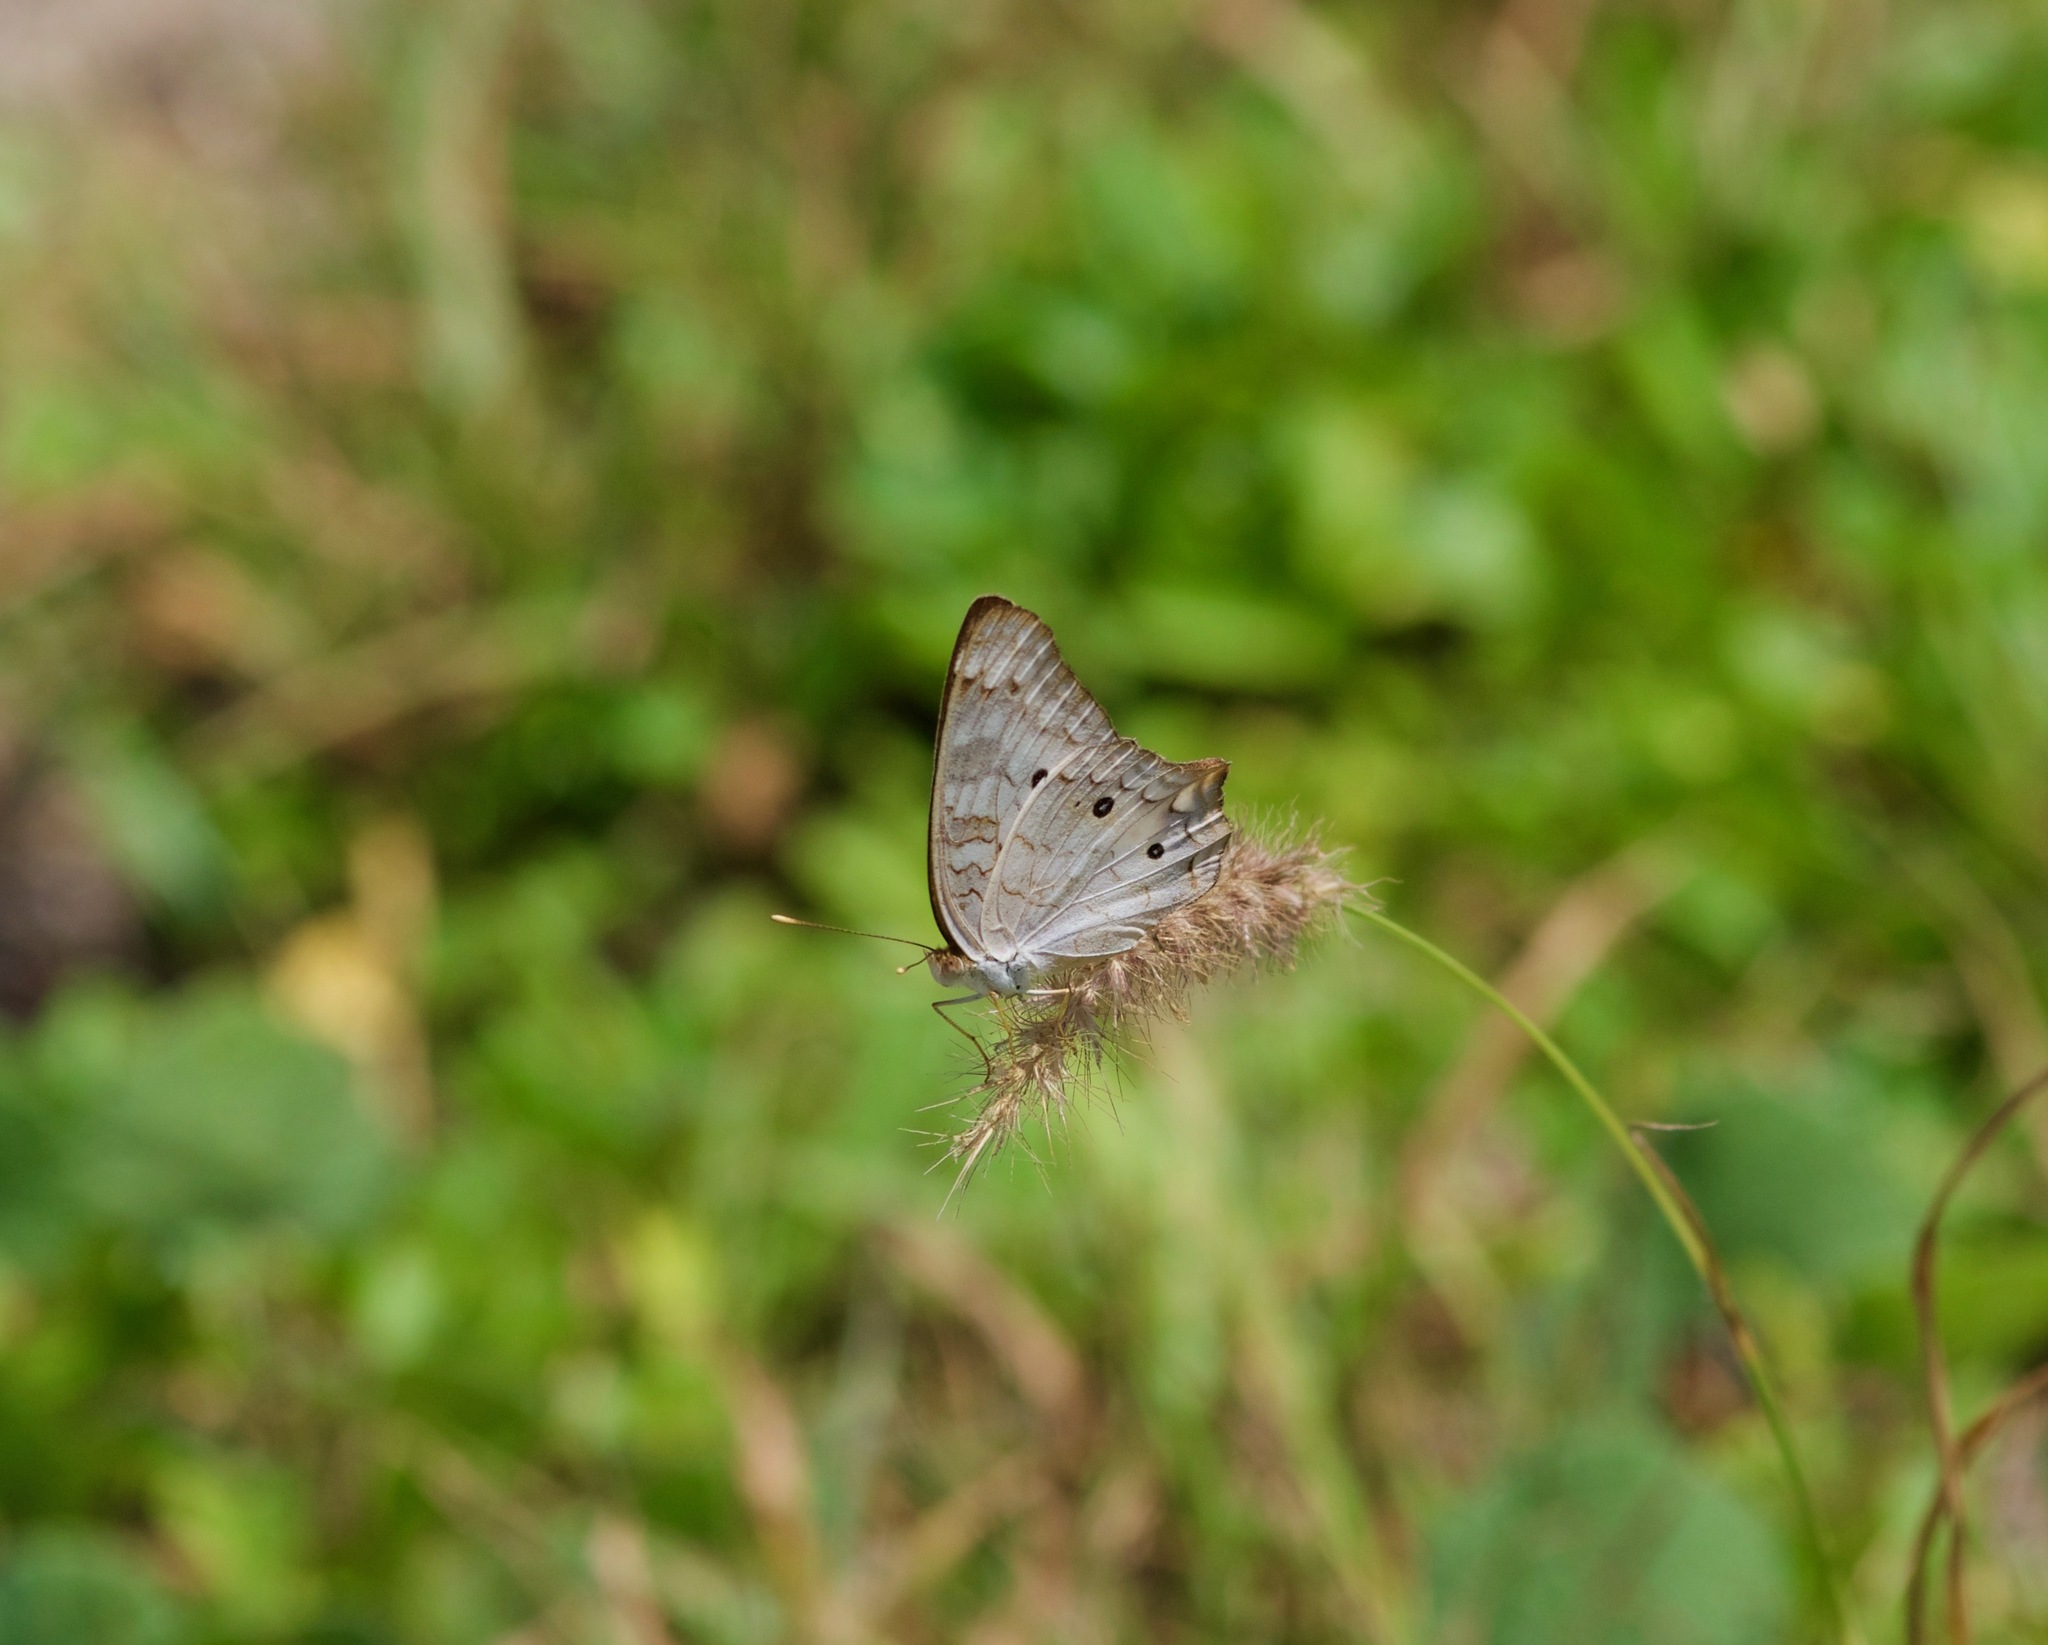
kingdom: Animalia
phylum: Arthropoda
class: Insecta
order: Lepidoptera
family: Nymphalidae
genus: Anartia
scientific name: Anartia jatrophae
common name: White peacock
